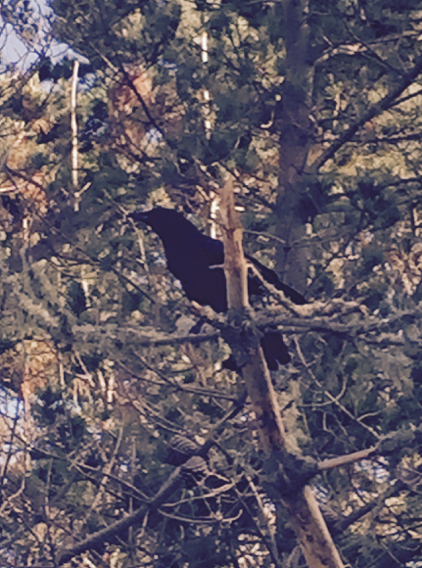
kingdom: Animalia
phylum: Chordata
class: Aves
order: Passeriformes
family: Corvidae
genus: Corvus
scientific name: Corvus brachyrhynchos
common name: American crow
